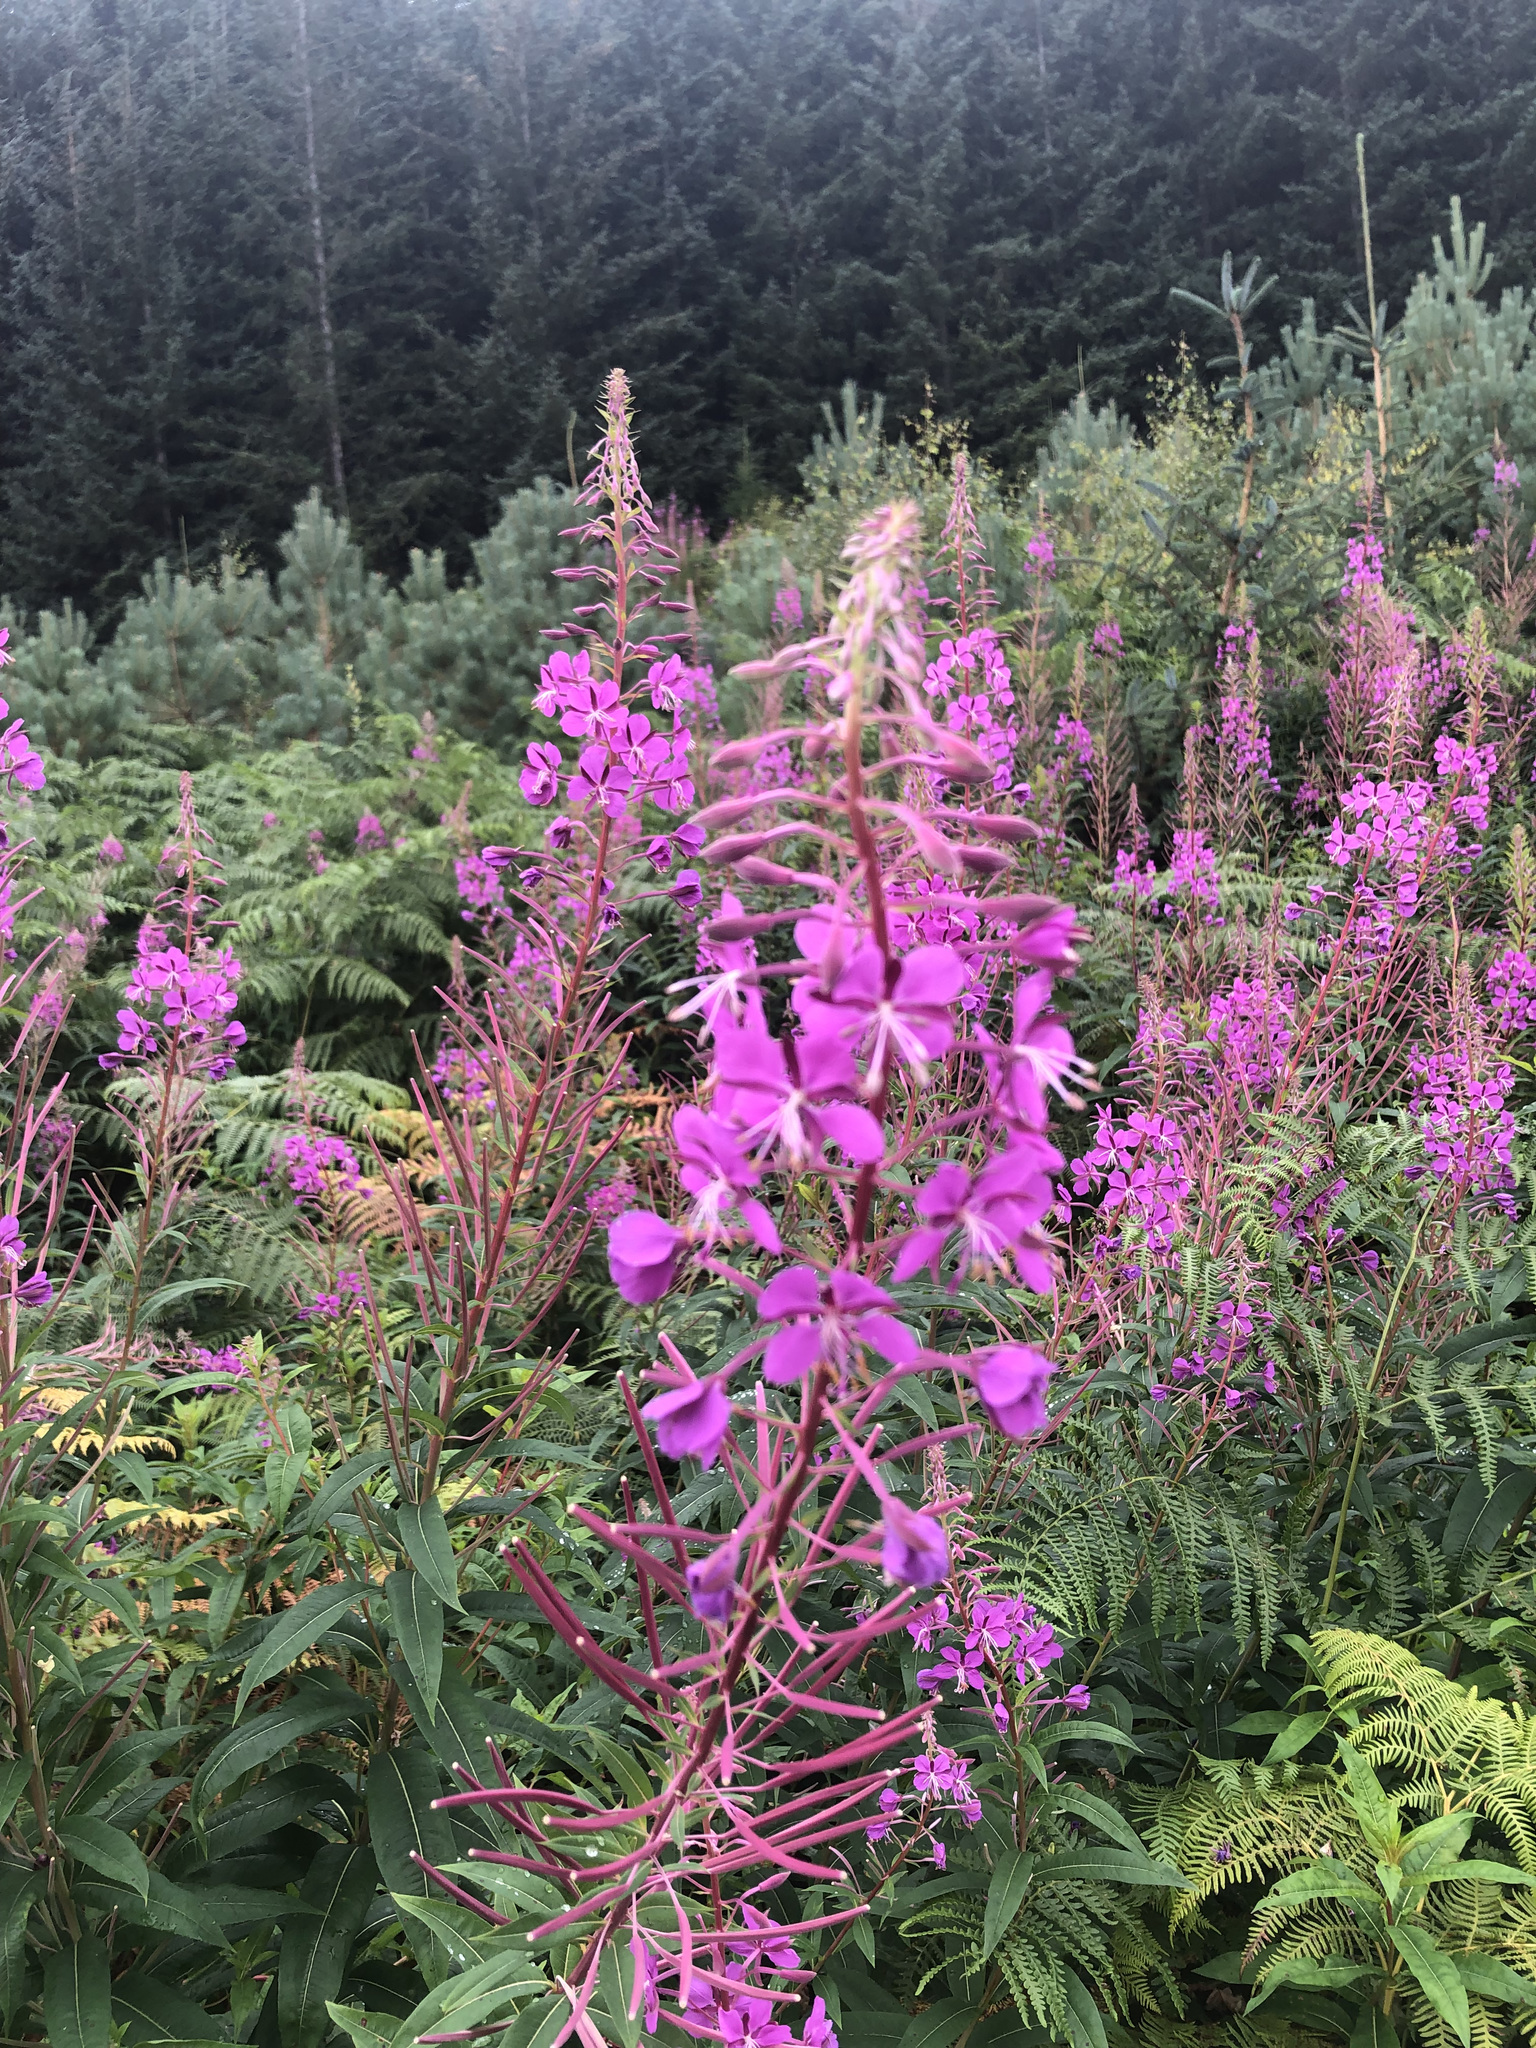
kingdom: Plantae
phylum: Tracheophyta
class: Magnoliopsida
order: Myrtales
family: Onagraceae
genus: Chamaenerion
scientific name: Chamaenerion angustifolium
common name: Fireweed
